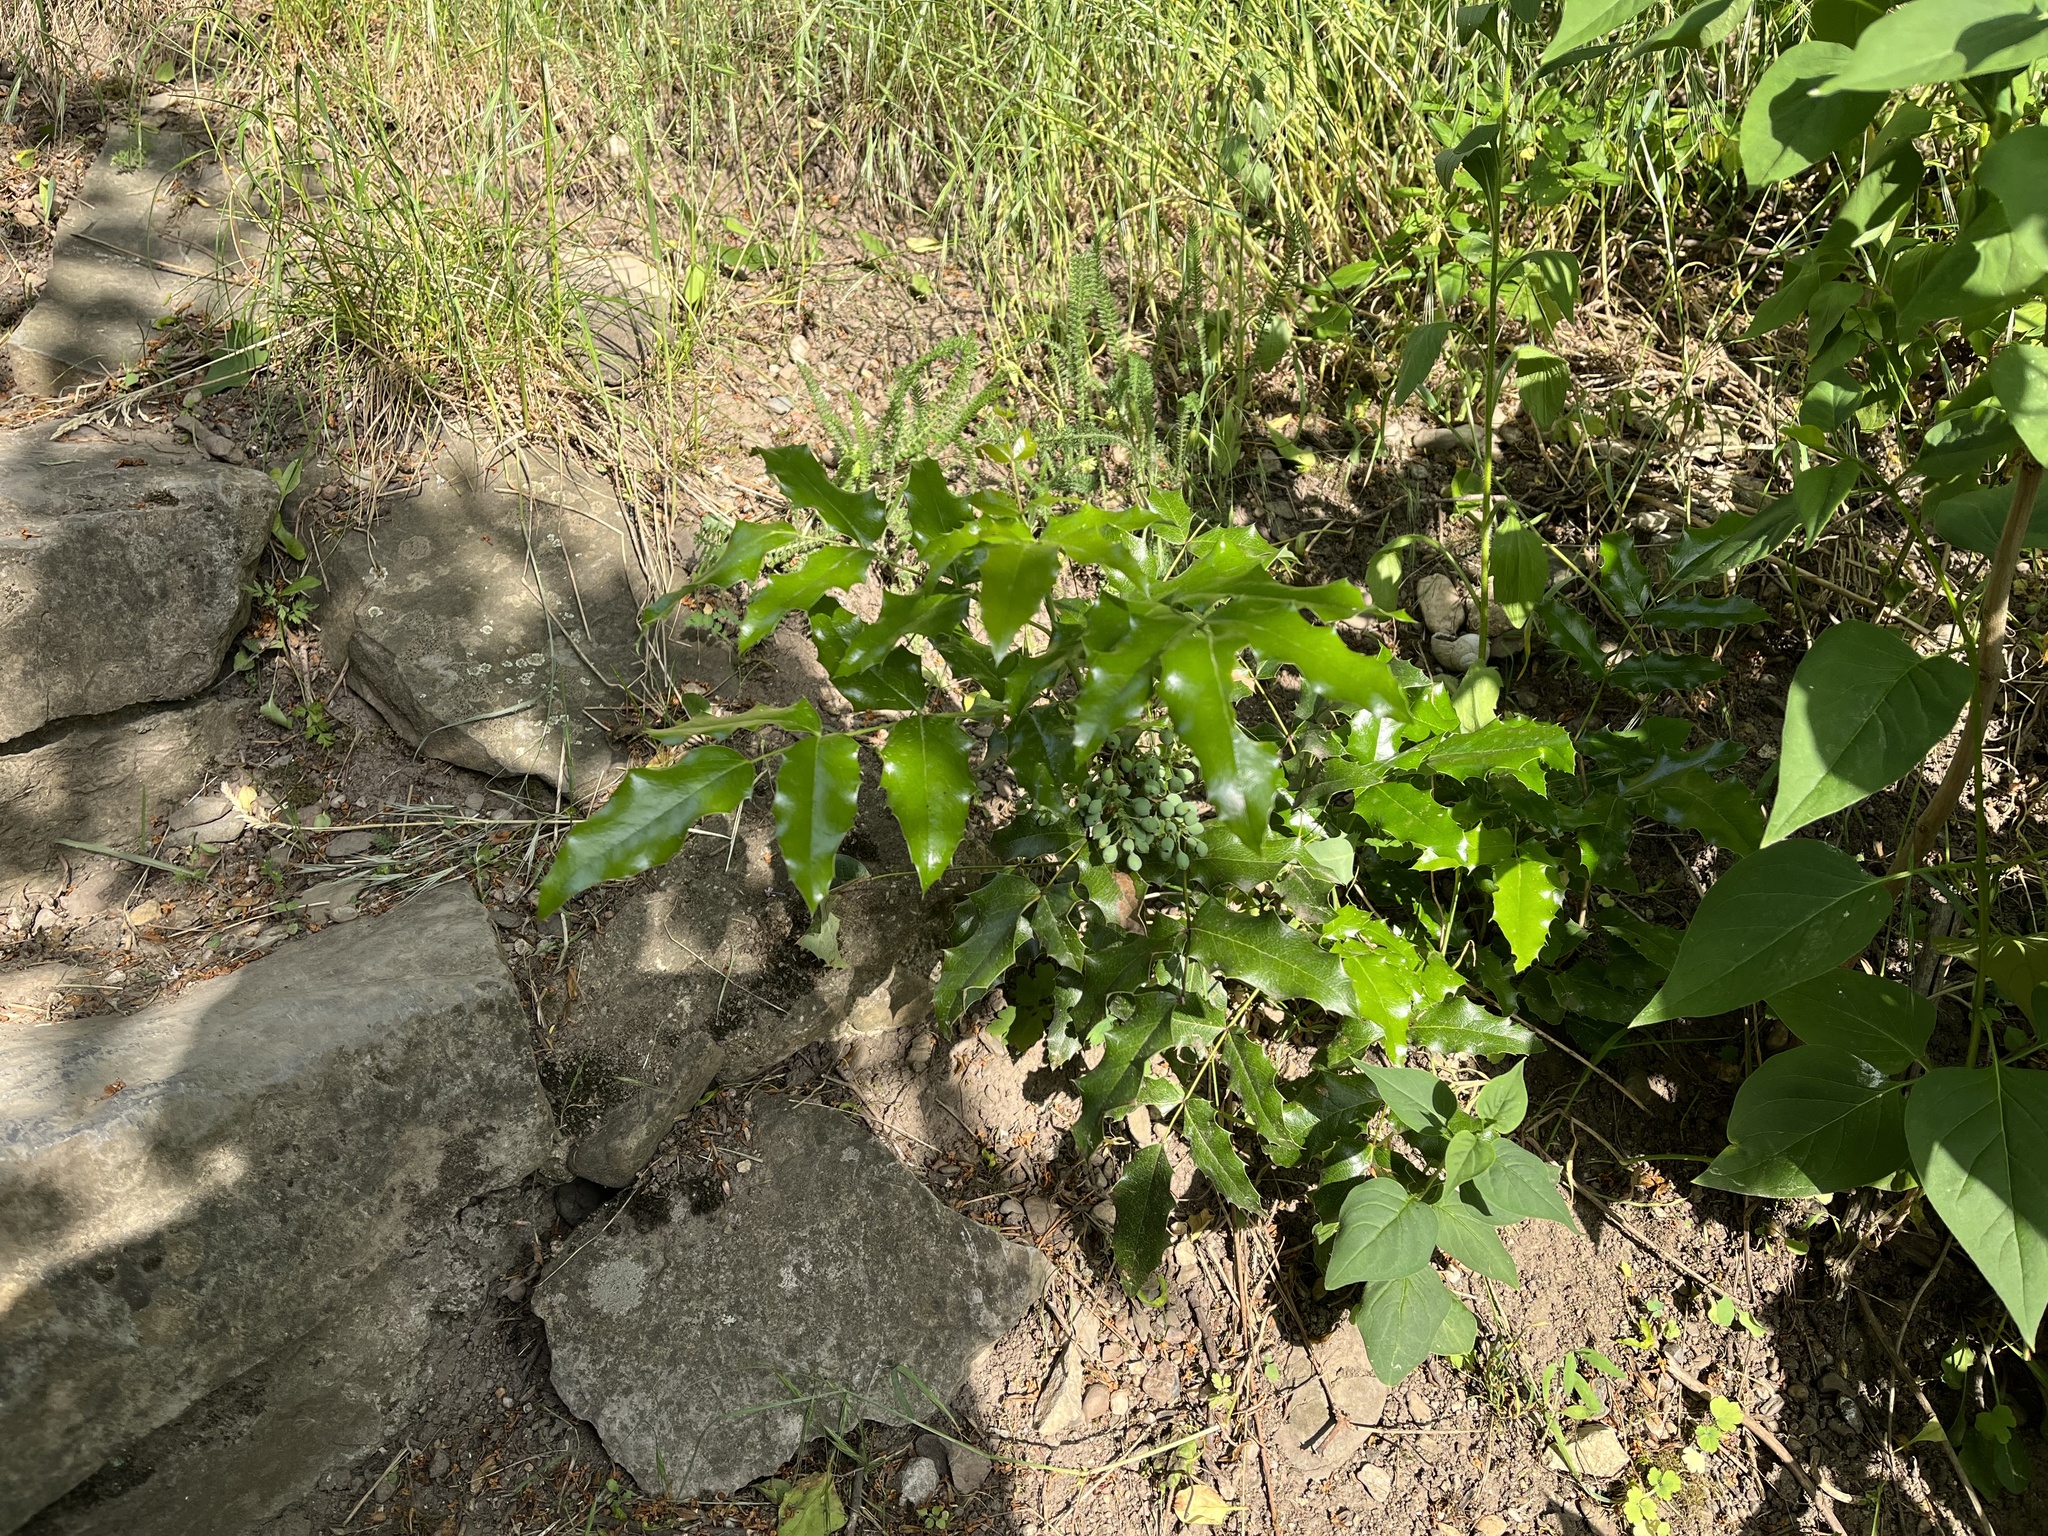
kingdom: Plantae
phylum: Tracheophyta
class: Magnoliopsida
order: Ranunculales
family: Berberidaceae
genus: Mahonia
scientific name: Mahonia aquifolium
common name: Oregon-grape
